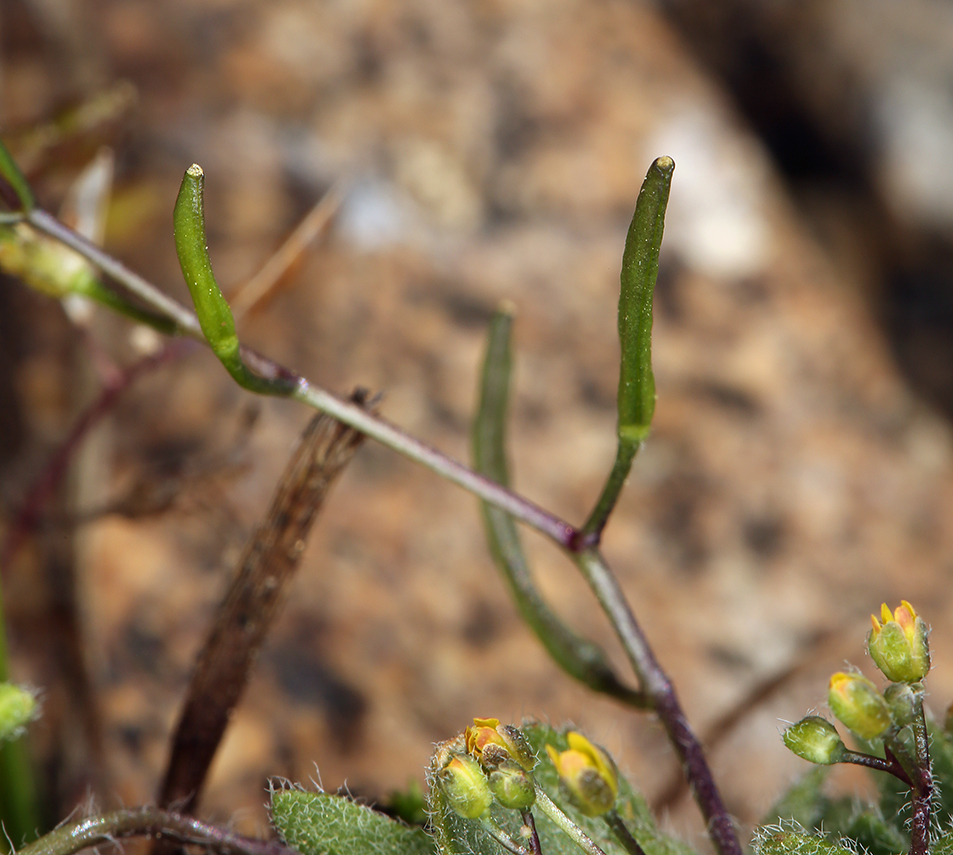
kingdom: Plantae
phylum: Tracheophyta
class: Magnoliopsida
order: Brassicales
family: Brassicaceae
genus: Draba
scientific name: Draba albertina
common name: Slender draba
